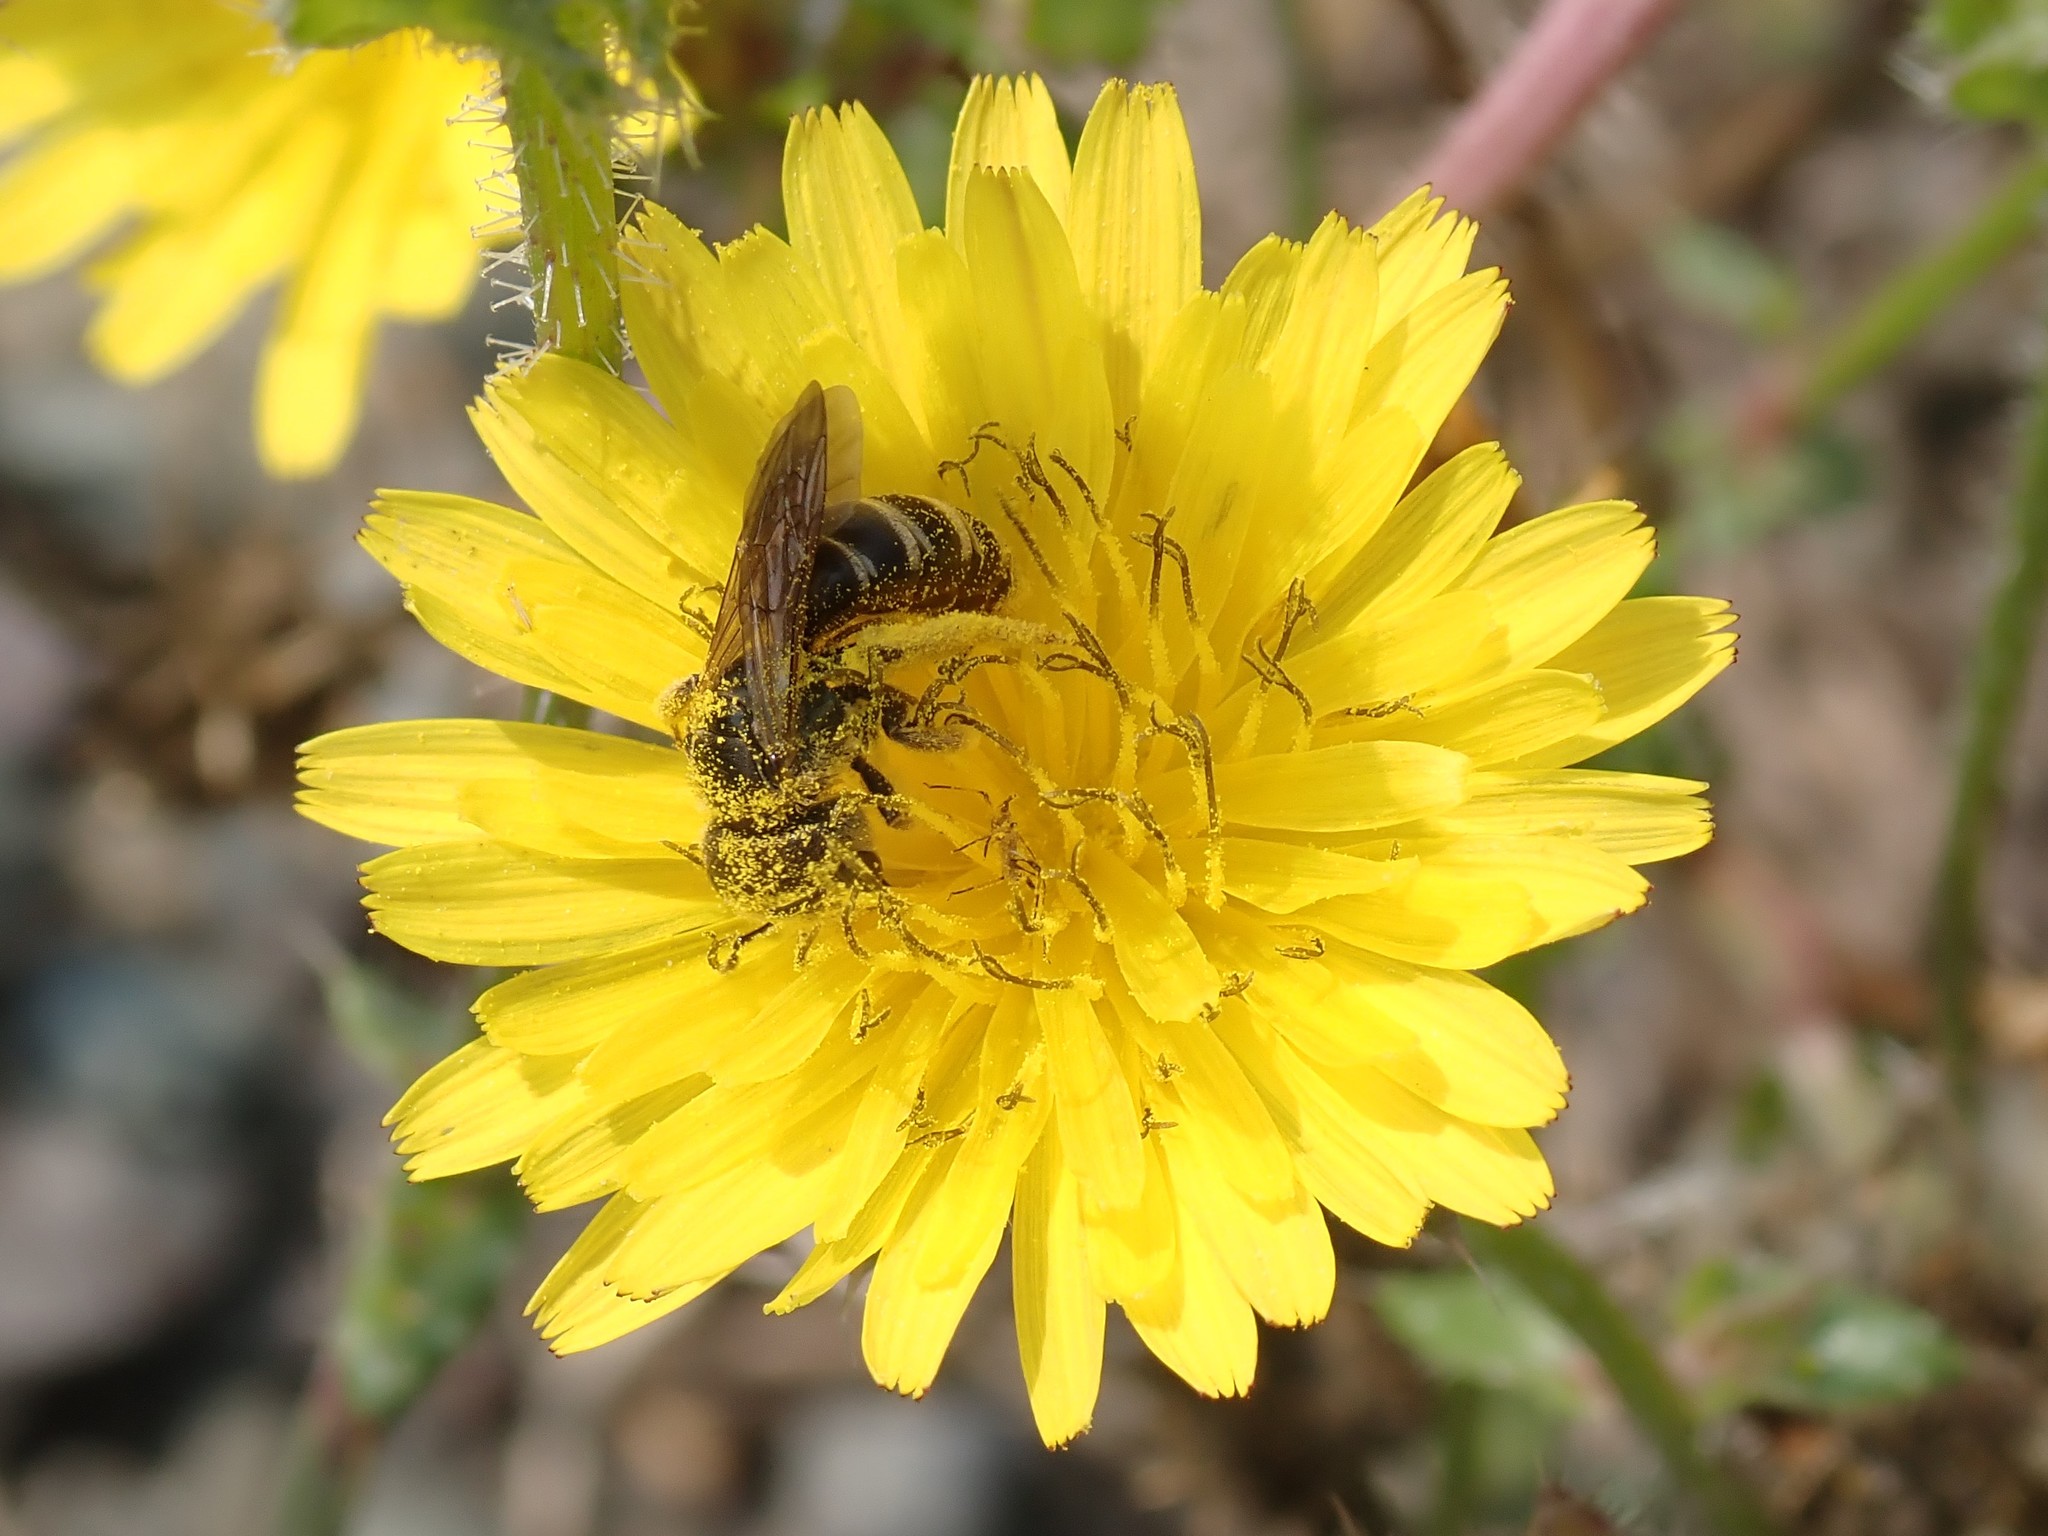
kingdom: Animalia
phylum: Arthropoda
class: Insecta
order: Hymenoptera
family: Halictidae
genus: Halictus
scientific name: Halictus ligatus
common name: Ligated furrow bee
